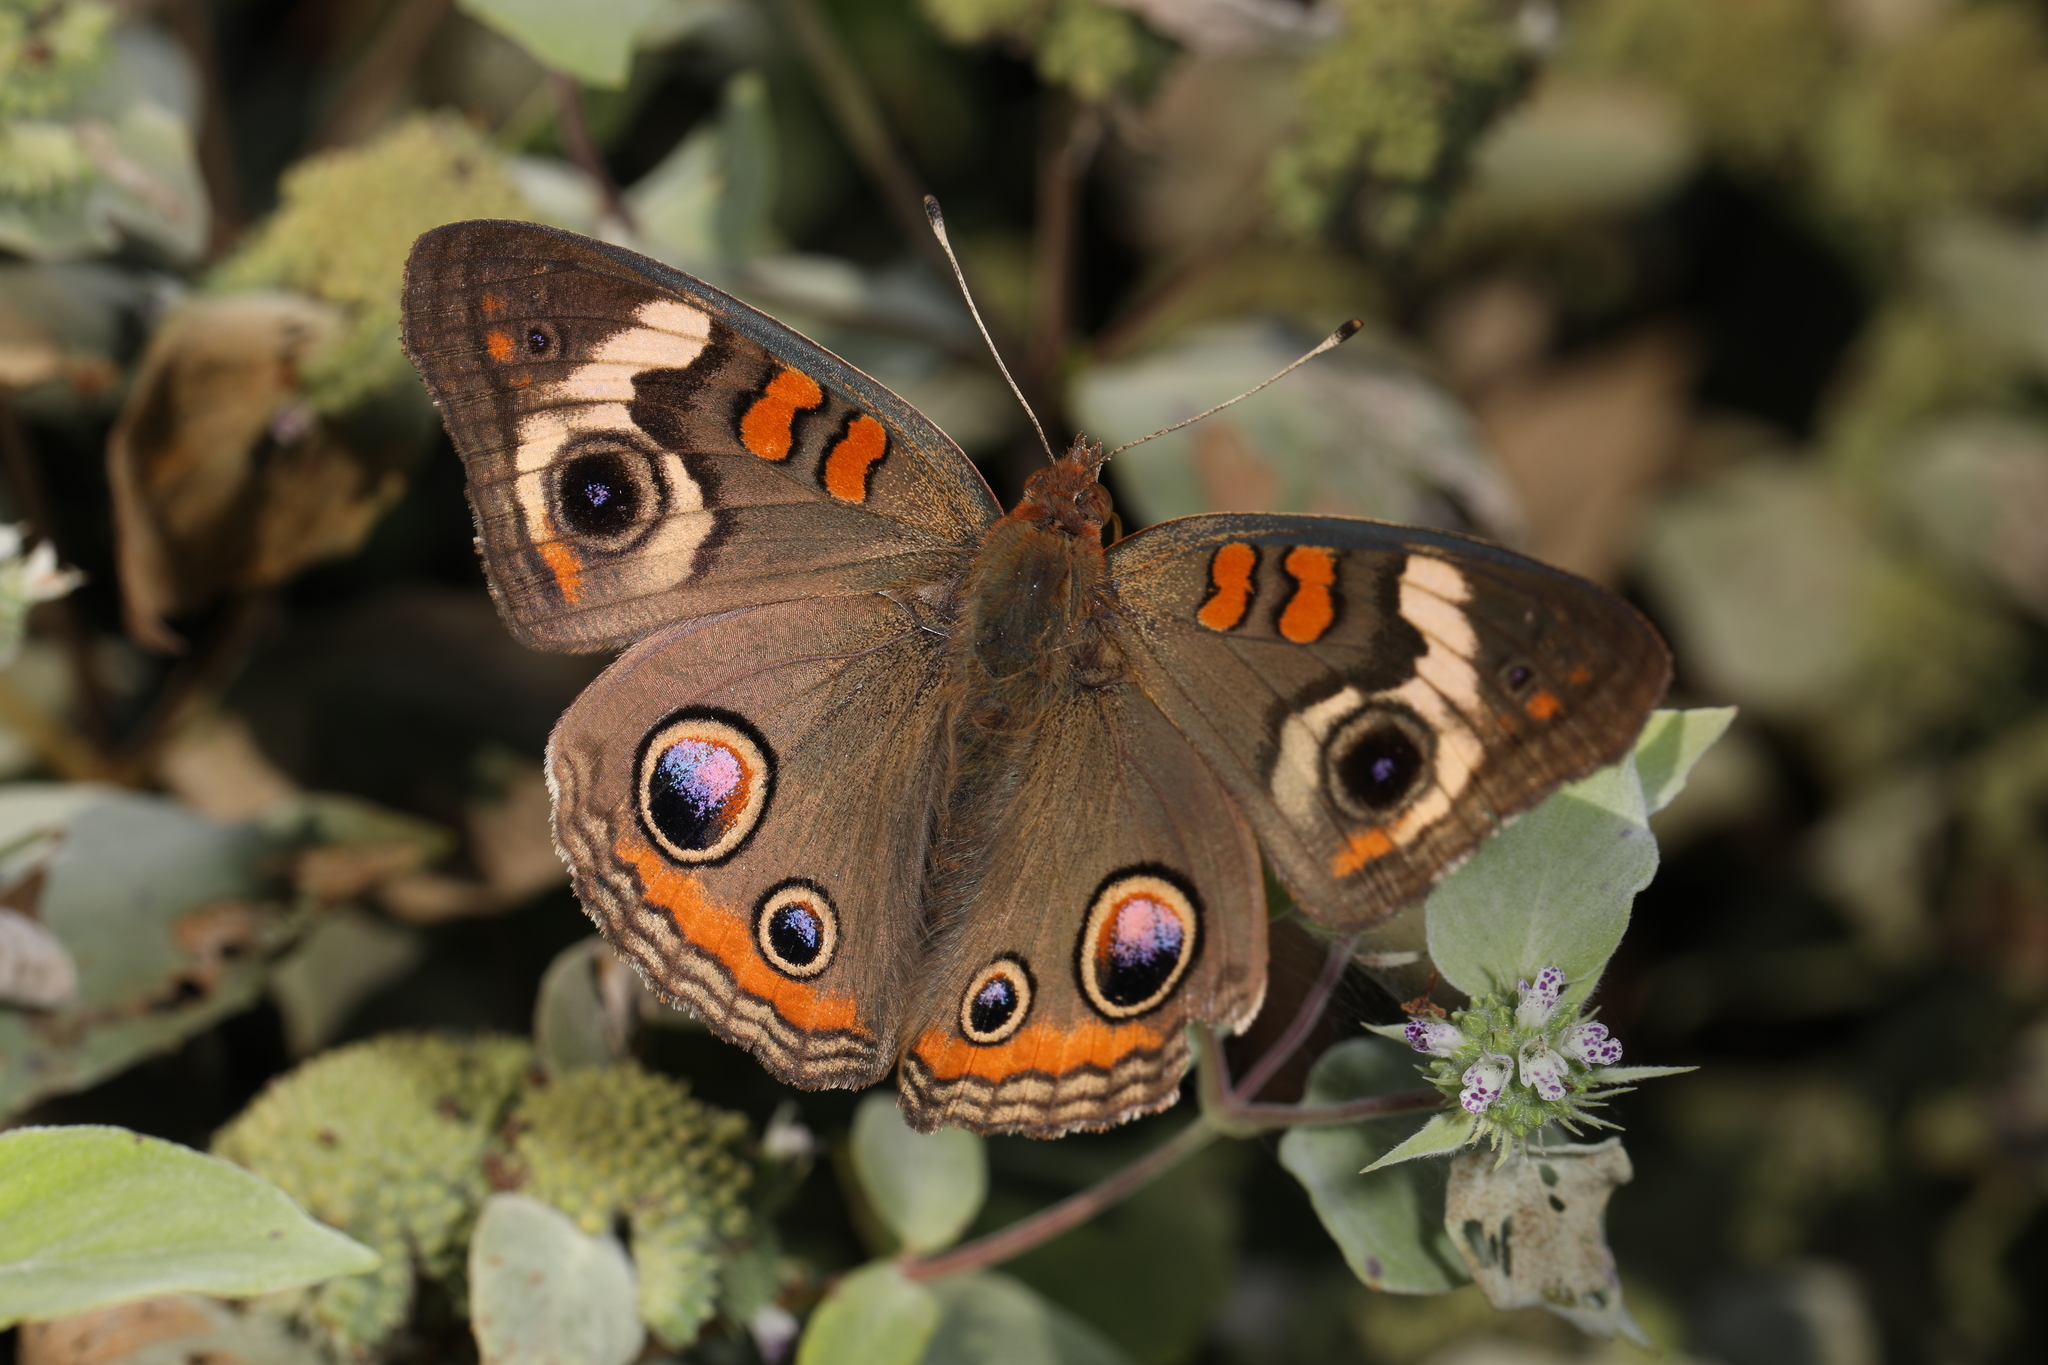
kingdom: Animalia
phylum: Arthropoda
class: Insecta
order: Lepidoptera
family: Nymphalidae
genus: Junonia
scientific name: Junonia coenia
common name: Common buckeye
